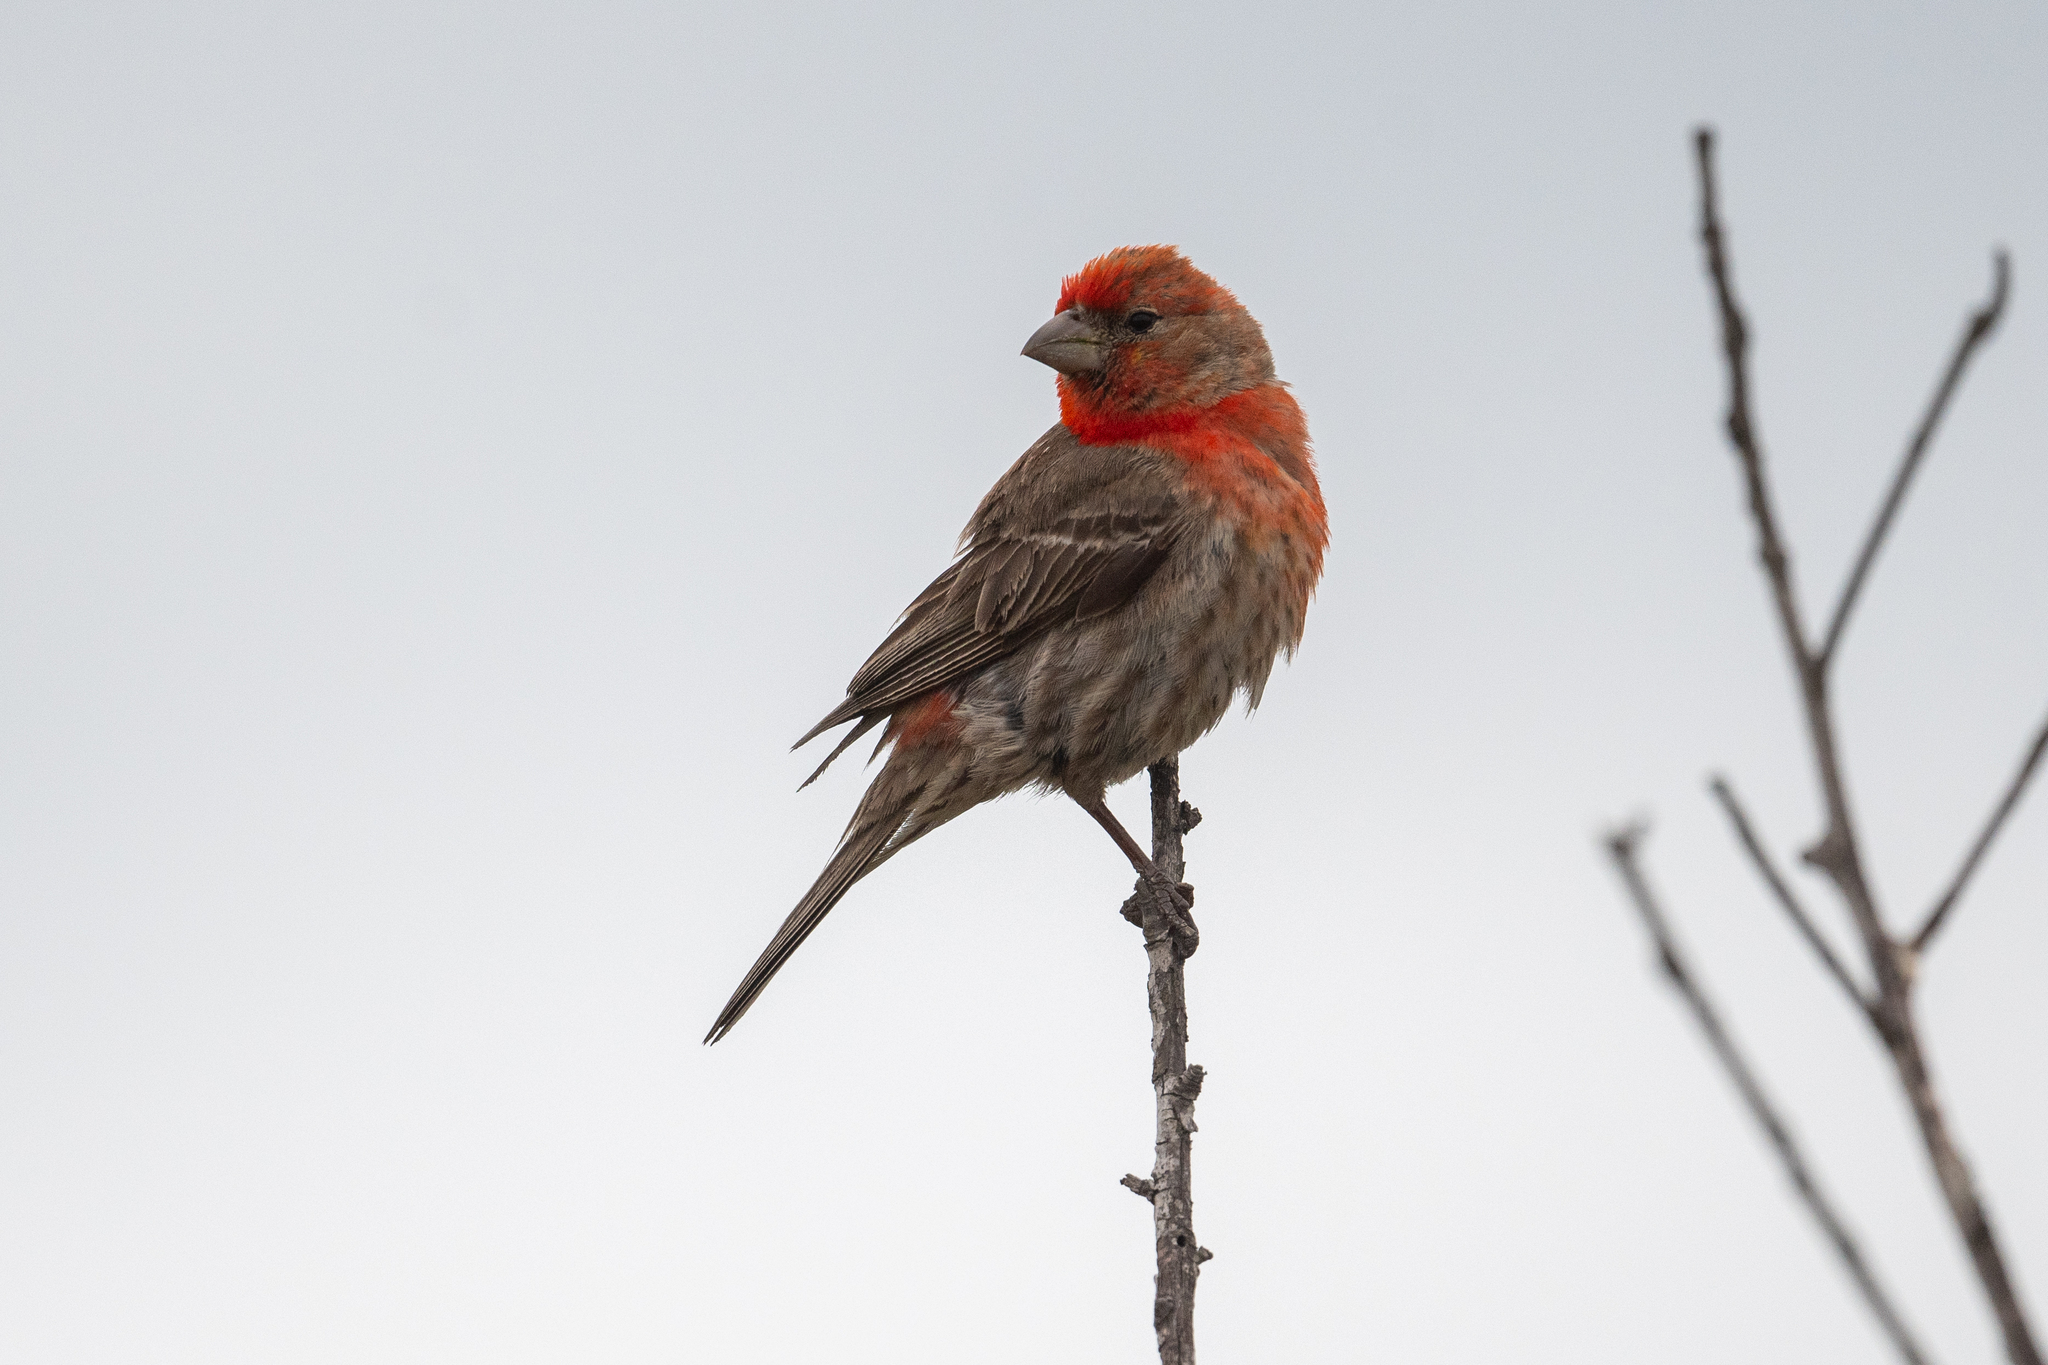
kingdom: Animalia
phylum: Chordata
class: Aves
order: Passeriformes
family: Fringillidae
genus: Haemorhous
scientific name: Haemorhous mexicanus
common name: House finch
